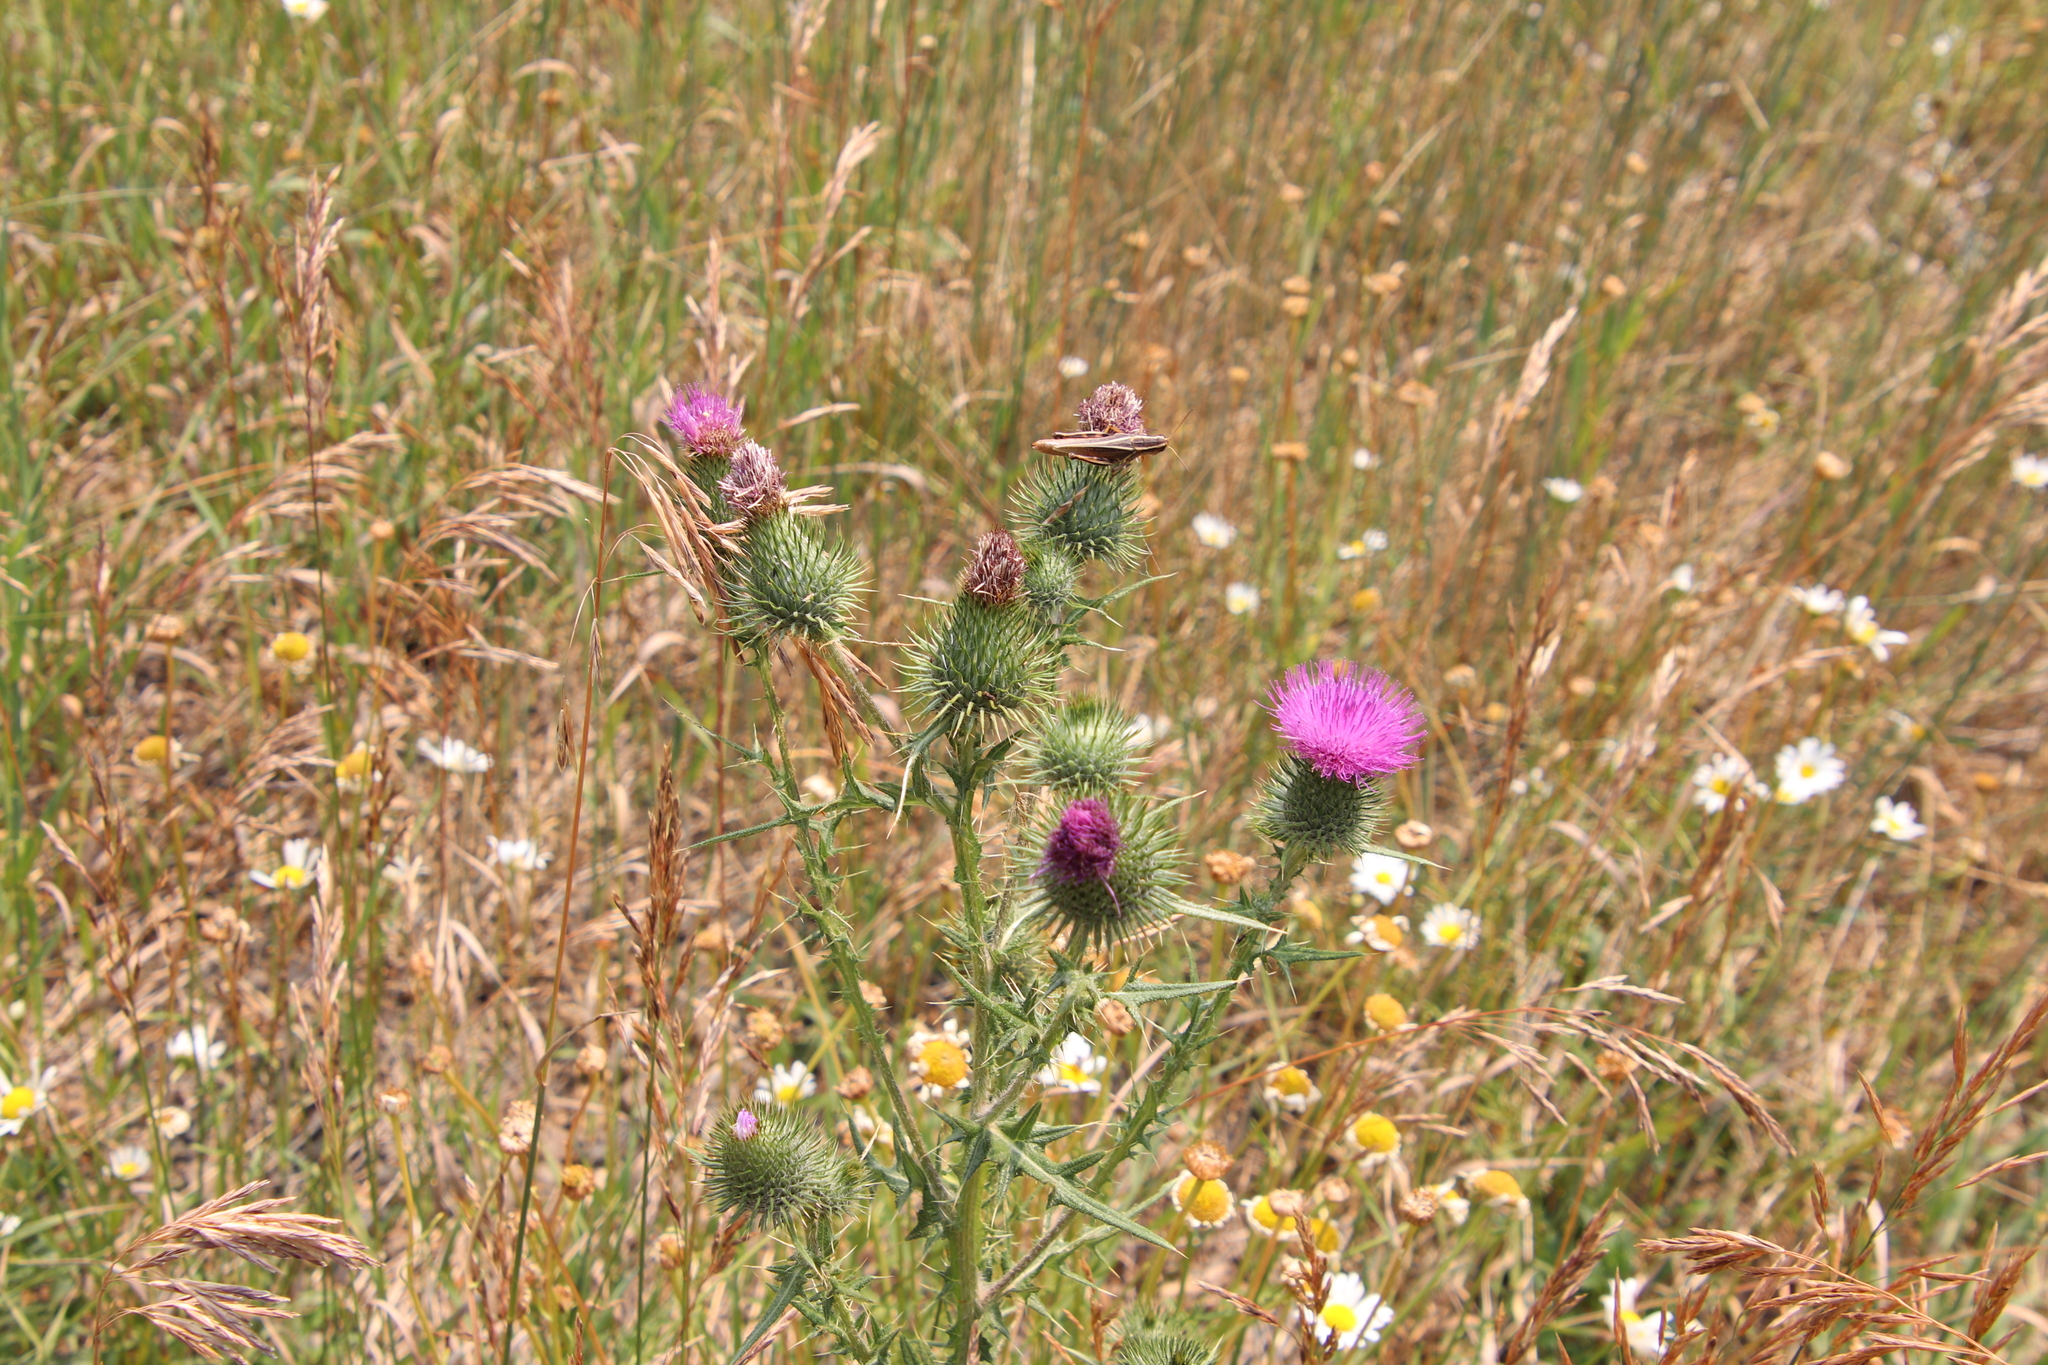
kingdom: Plantae
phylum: Tracheophyta
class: Magnoliopsida
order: Asterales
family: Asteraceae
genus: Cirsium
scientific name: Cirsium vulgare
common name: Bull thistle
